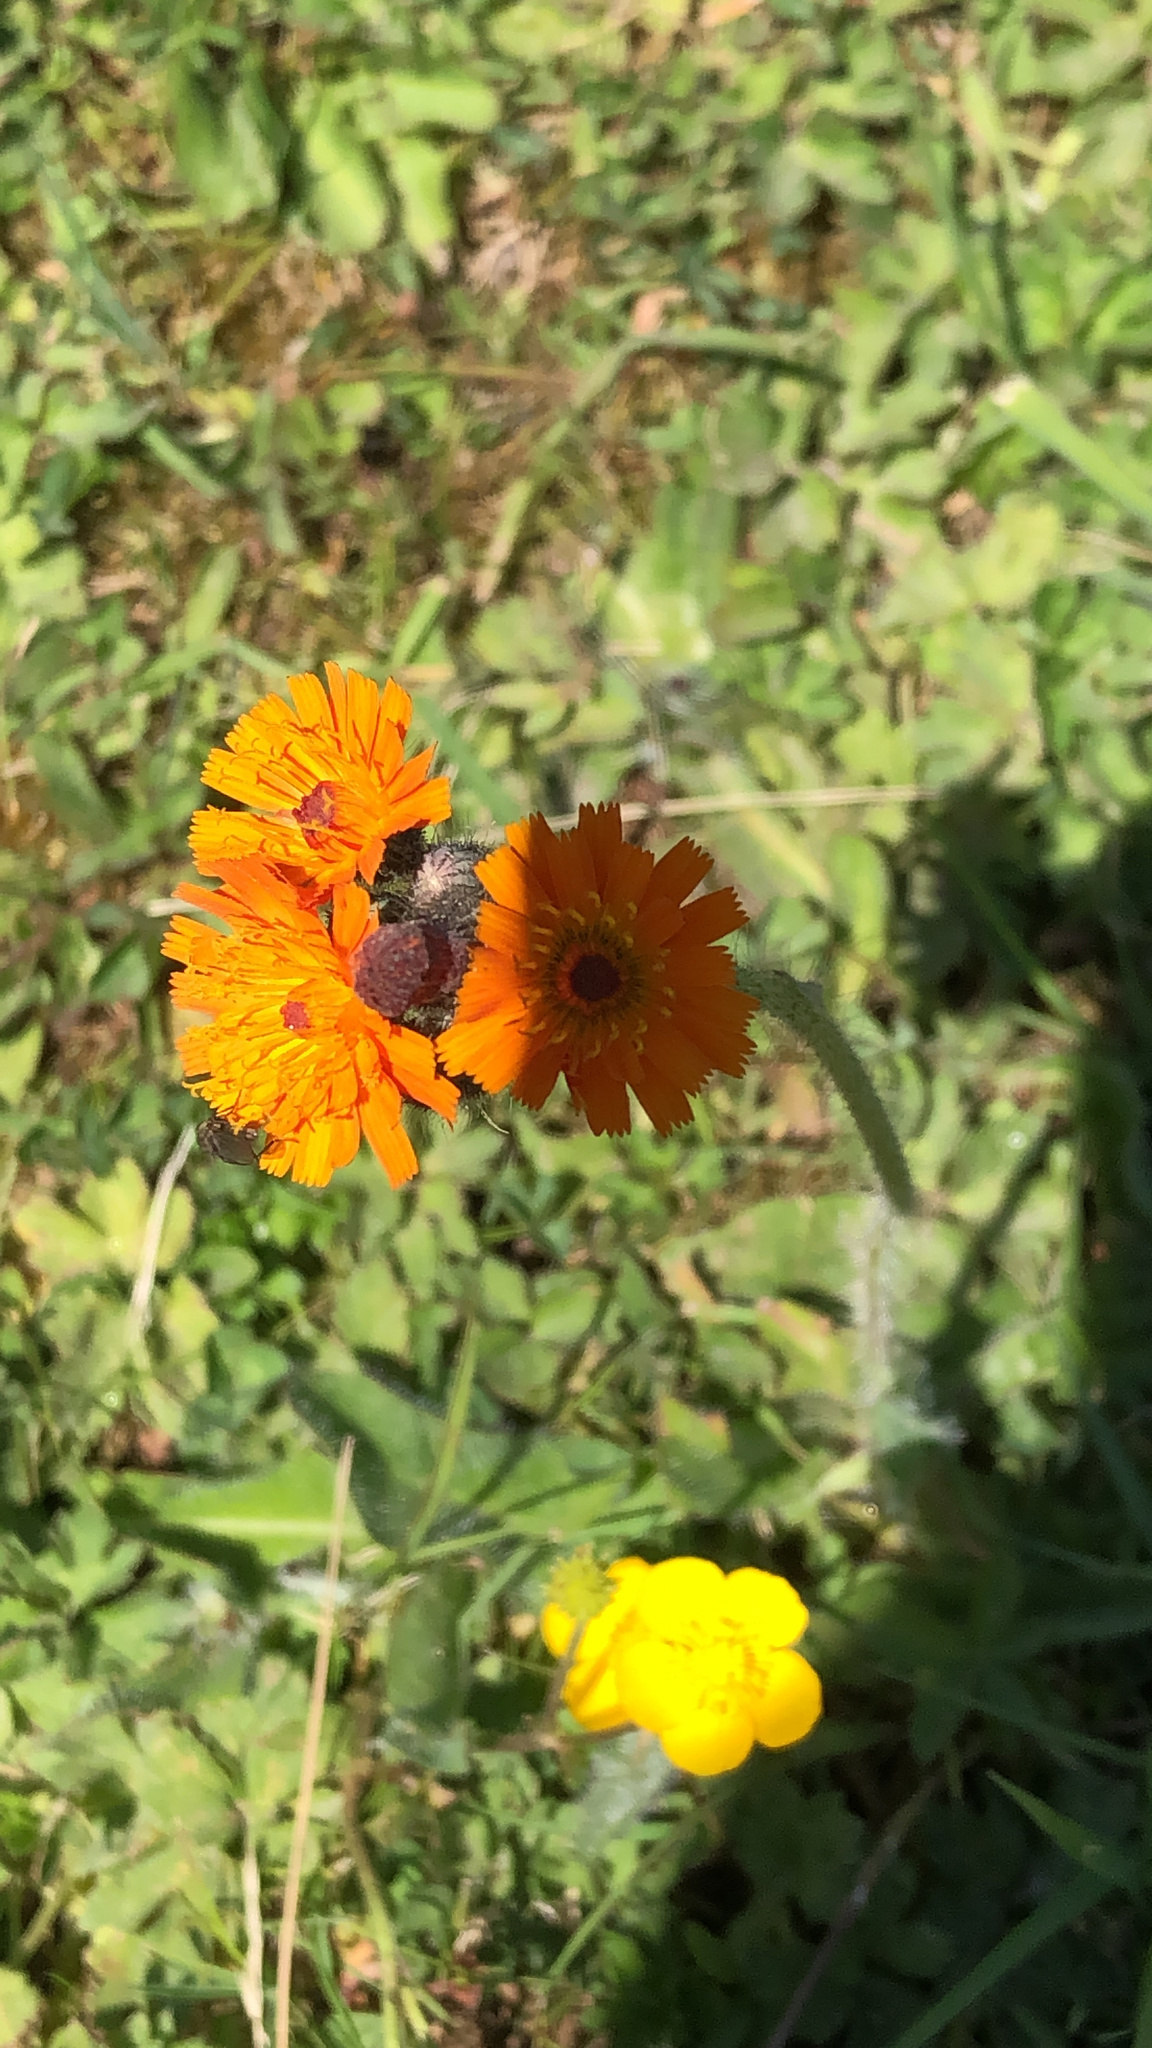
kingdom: Plantae
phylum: Tracheophyta
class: Magnoliopsida
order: Asterales
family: Asteraceae
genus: Pilosella
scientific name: Pilosella aurantiaca
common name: Fox-and-cubs
